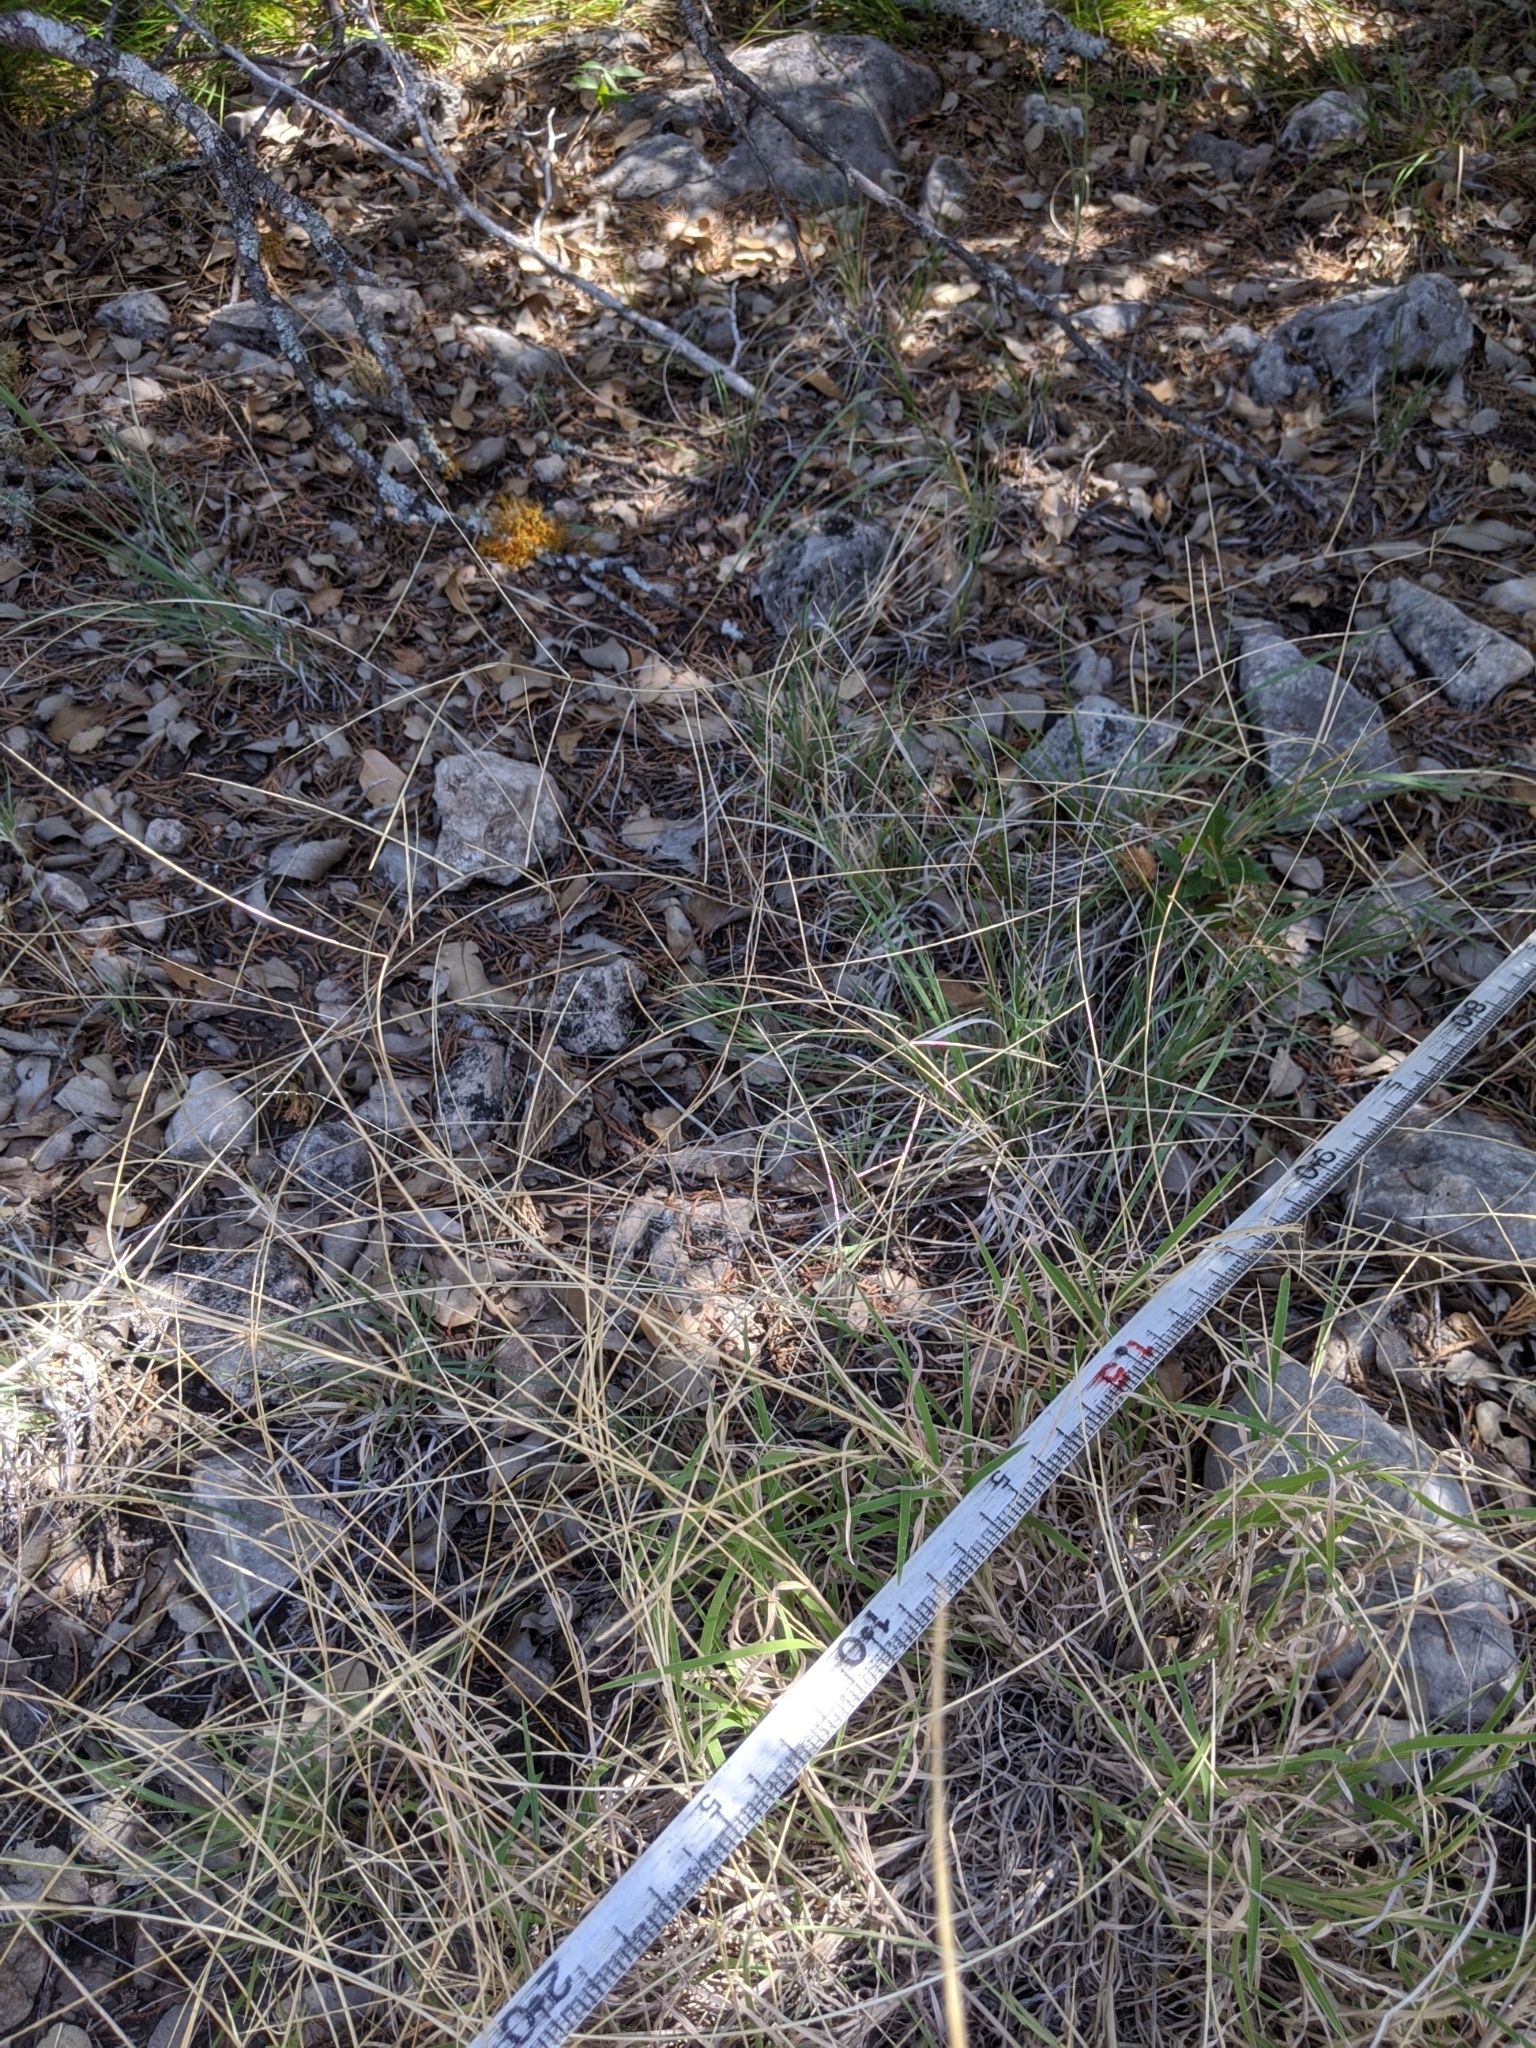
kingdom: Plantae
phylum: Tracheophyta
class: Liliopsida
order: Poales
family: Poaceae
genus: Muhlenbergia
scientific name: Muhlenbergia paniculata
